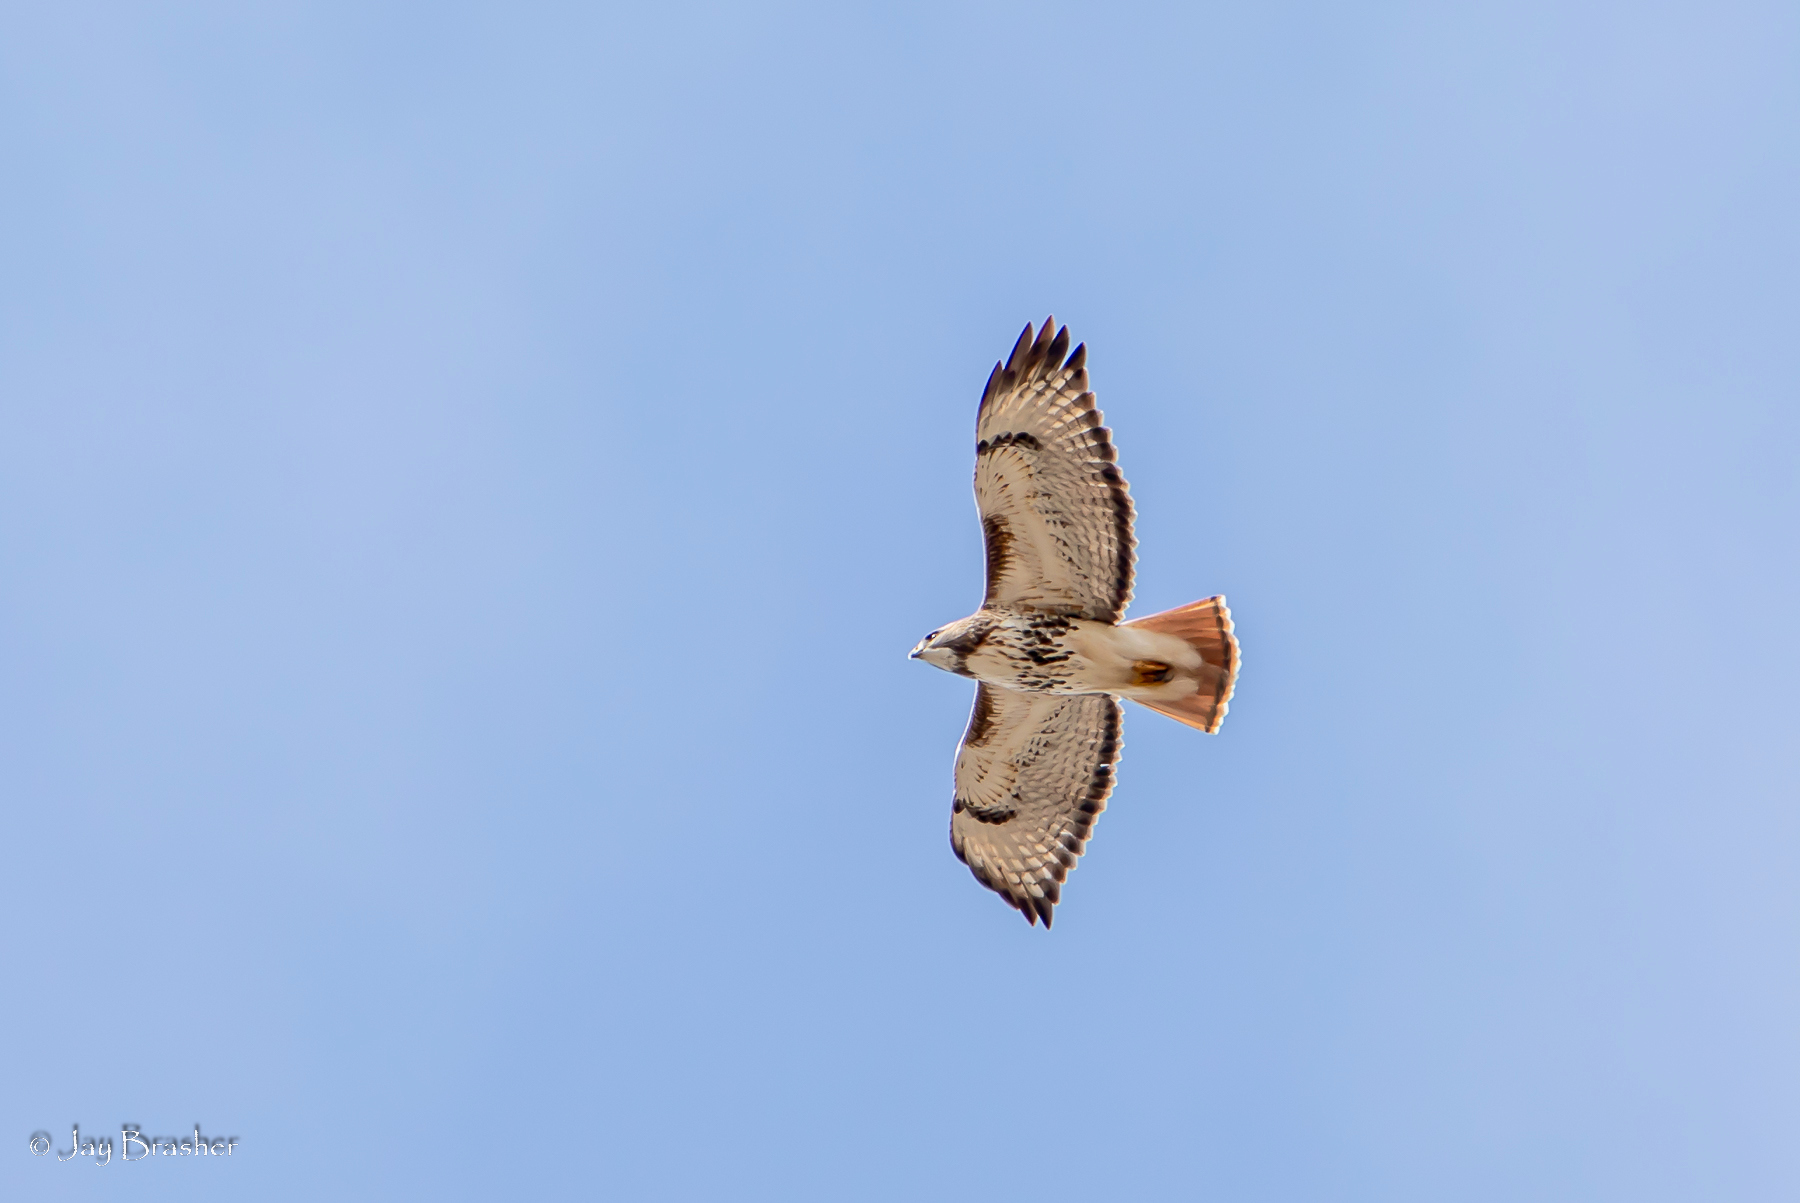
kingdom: Animalia
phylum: Chordata
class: Aves
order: Accipitriformes
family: Accipitridae
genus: Buteo
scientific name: Buteo jamaicensis
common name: Red-tailed hawk
